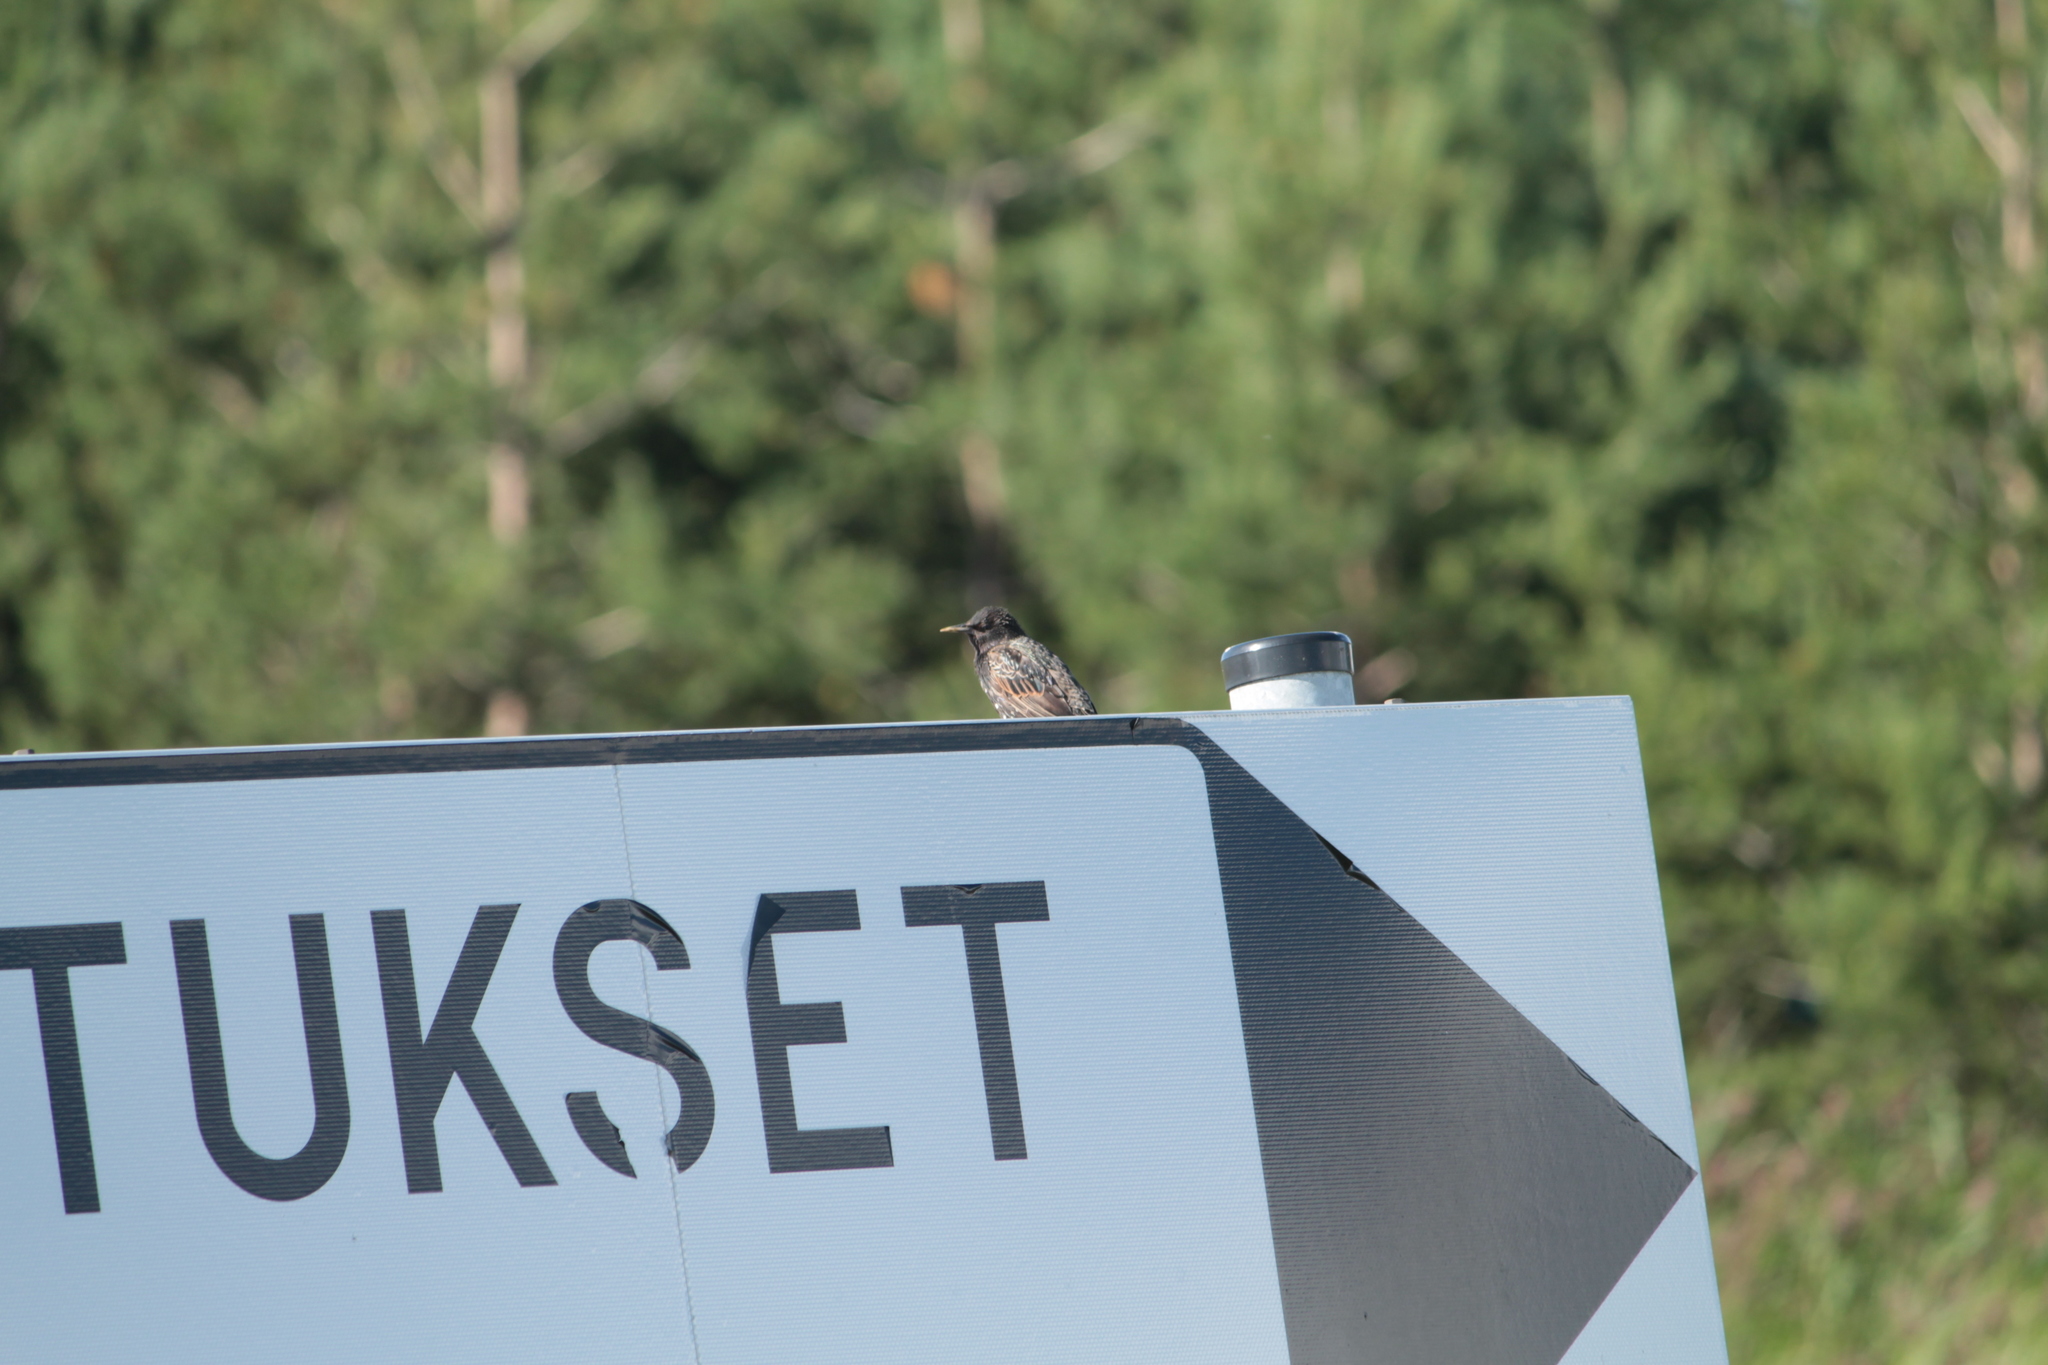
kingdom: Animalia
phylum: Chordata
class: Aves
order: Passeriformes
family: Sturnidae
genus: Sturnus
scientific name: Sturnus vulgaris
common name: Common starling
